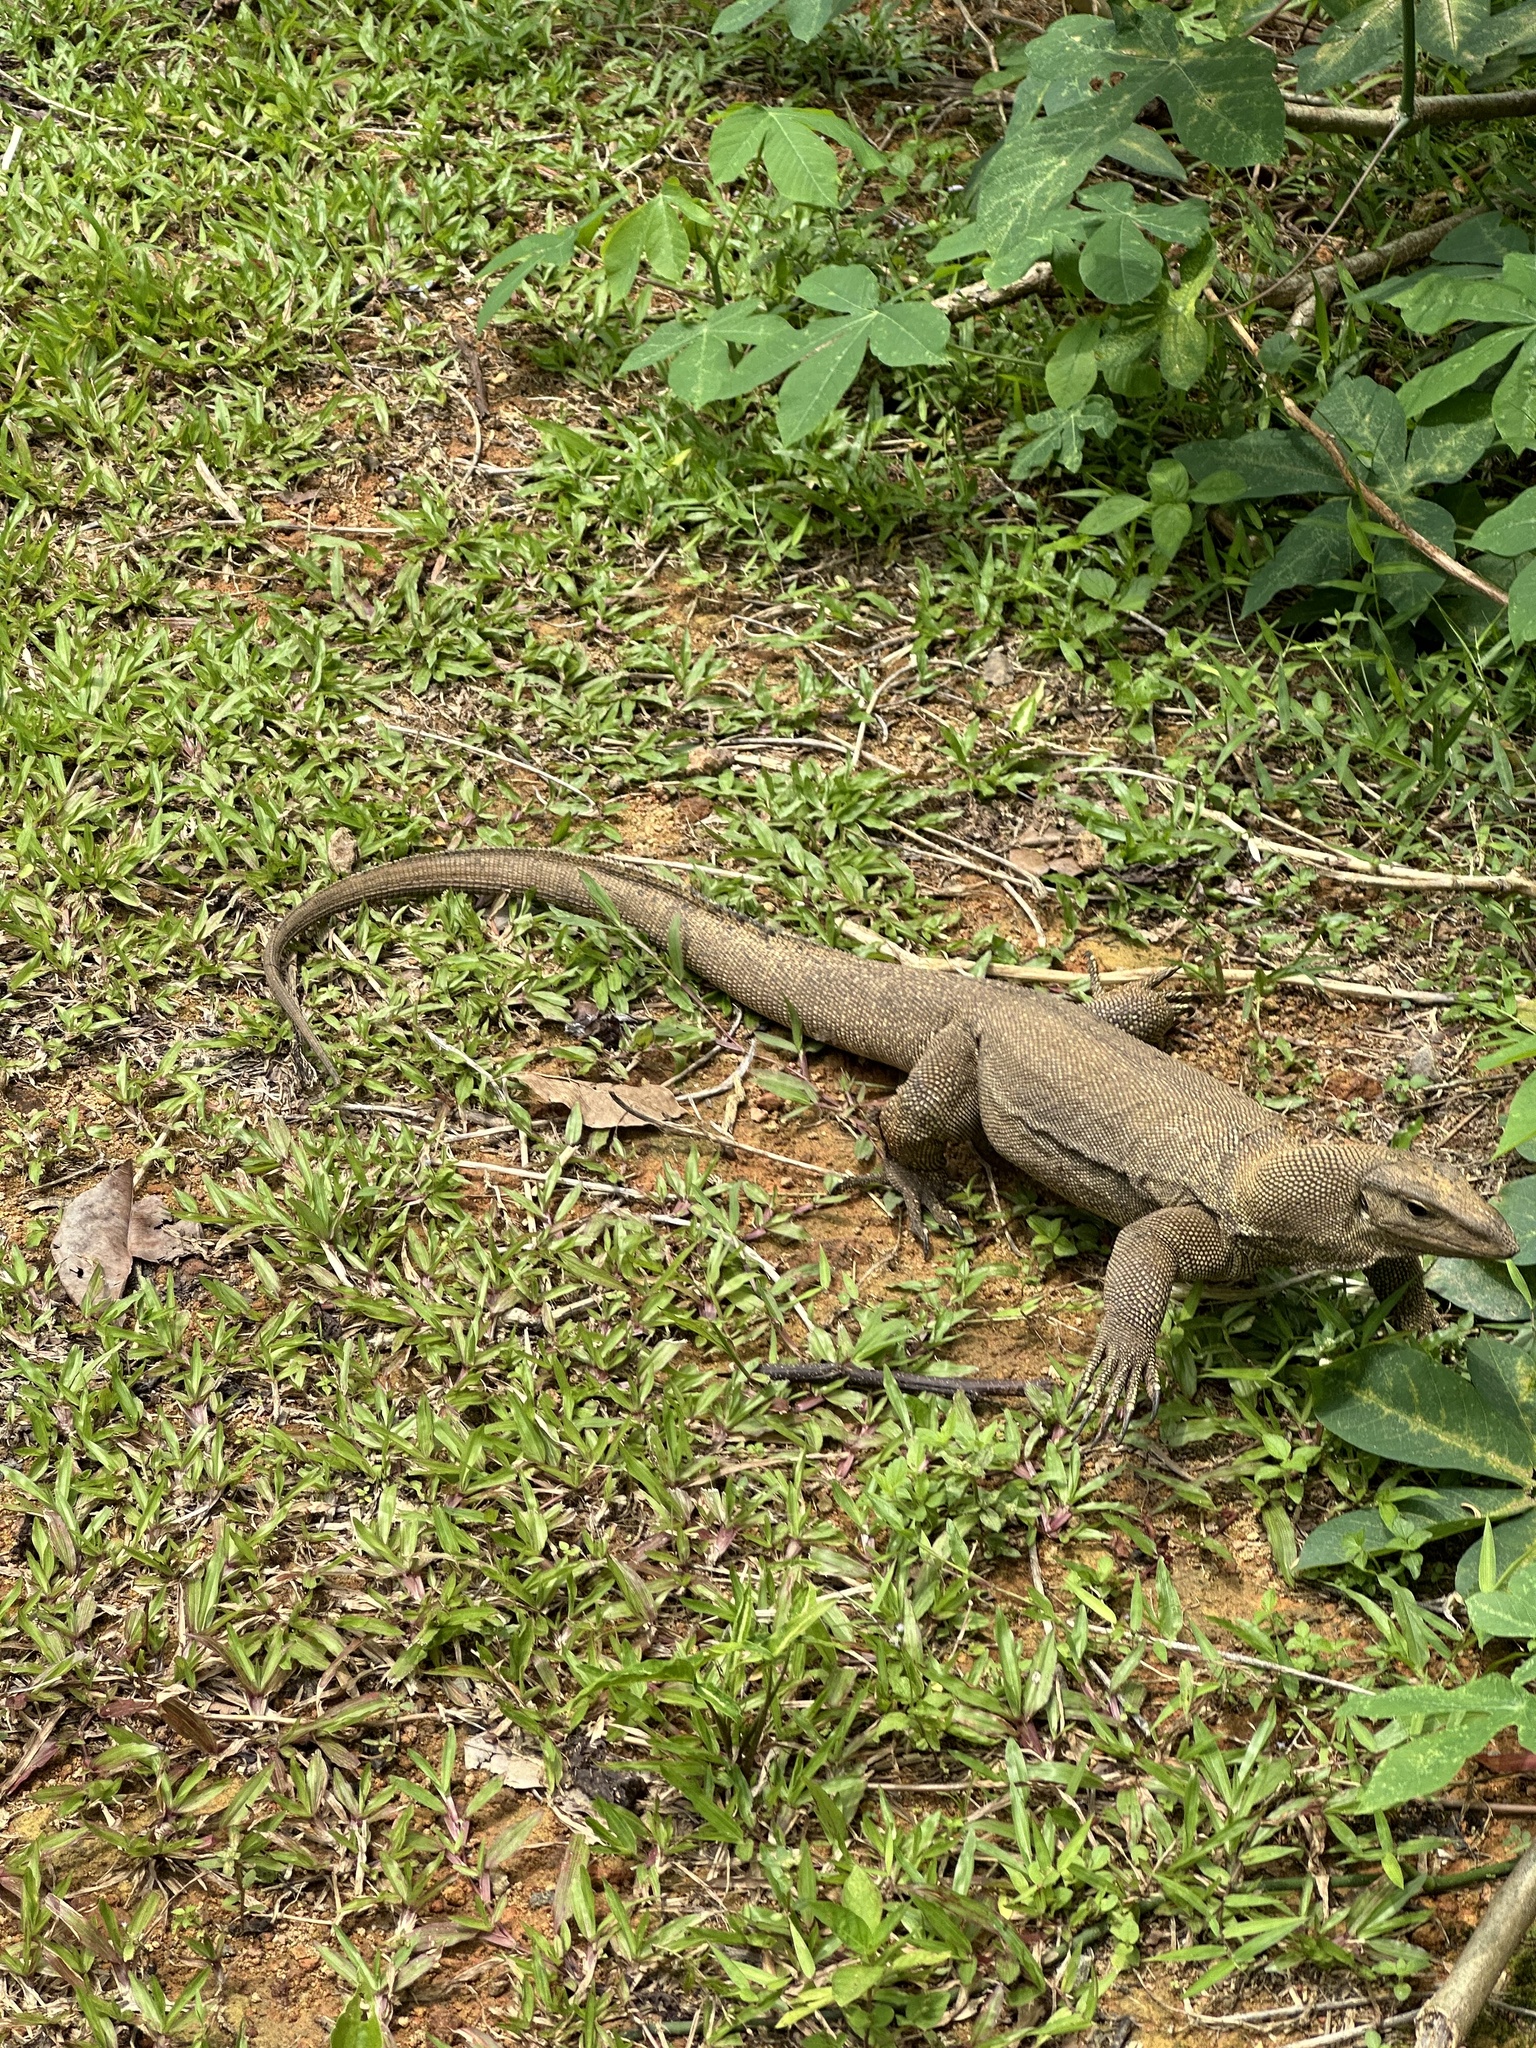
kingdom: Animalia
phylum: Chordata
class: Squamata
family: Varanidae
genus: Varanus
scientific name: Varanus nebulosus
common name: Clouded monitor
